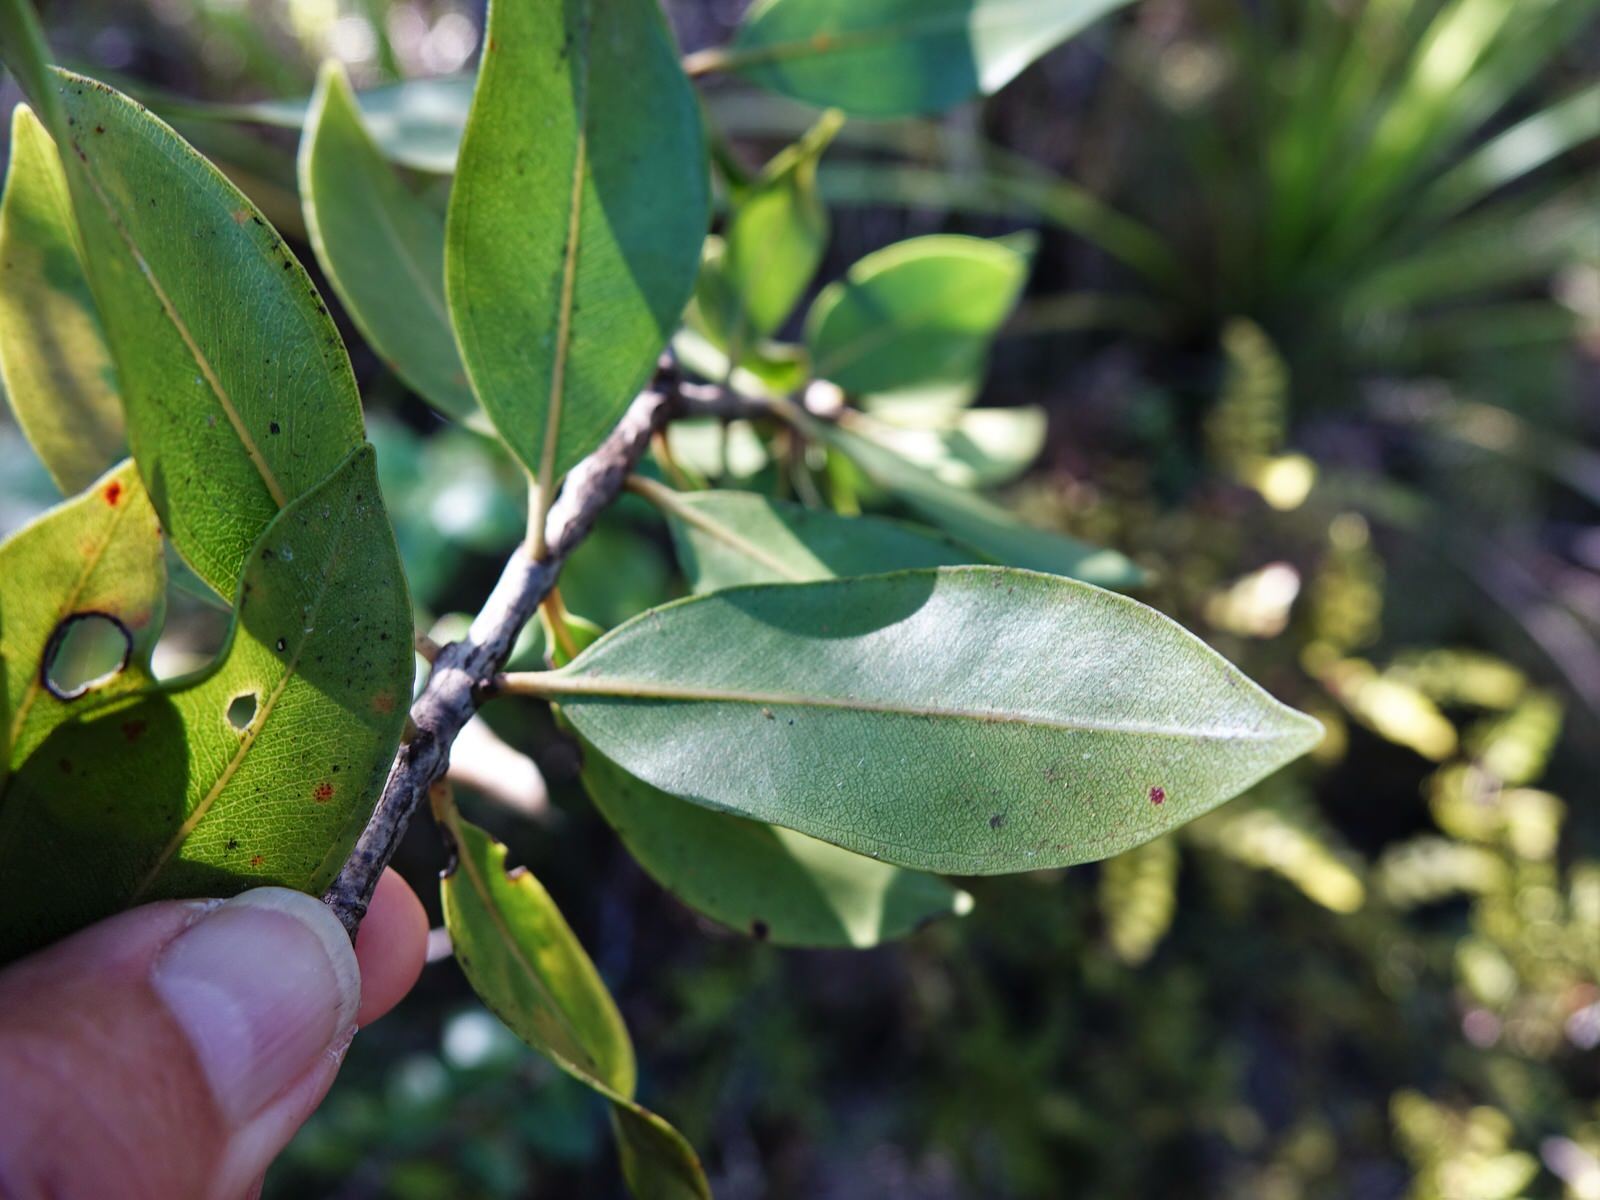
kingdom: Plantae
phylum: Tracheophyta
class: Magnoliopsida
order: Myrtales
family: Myrtaceae
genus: Metrosideros
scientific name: Metrosideros robusta
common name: Northern rata
